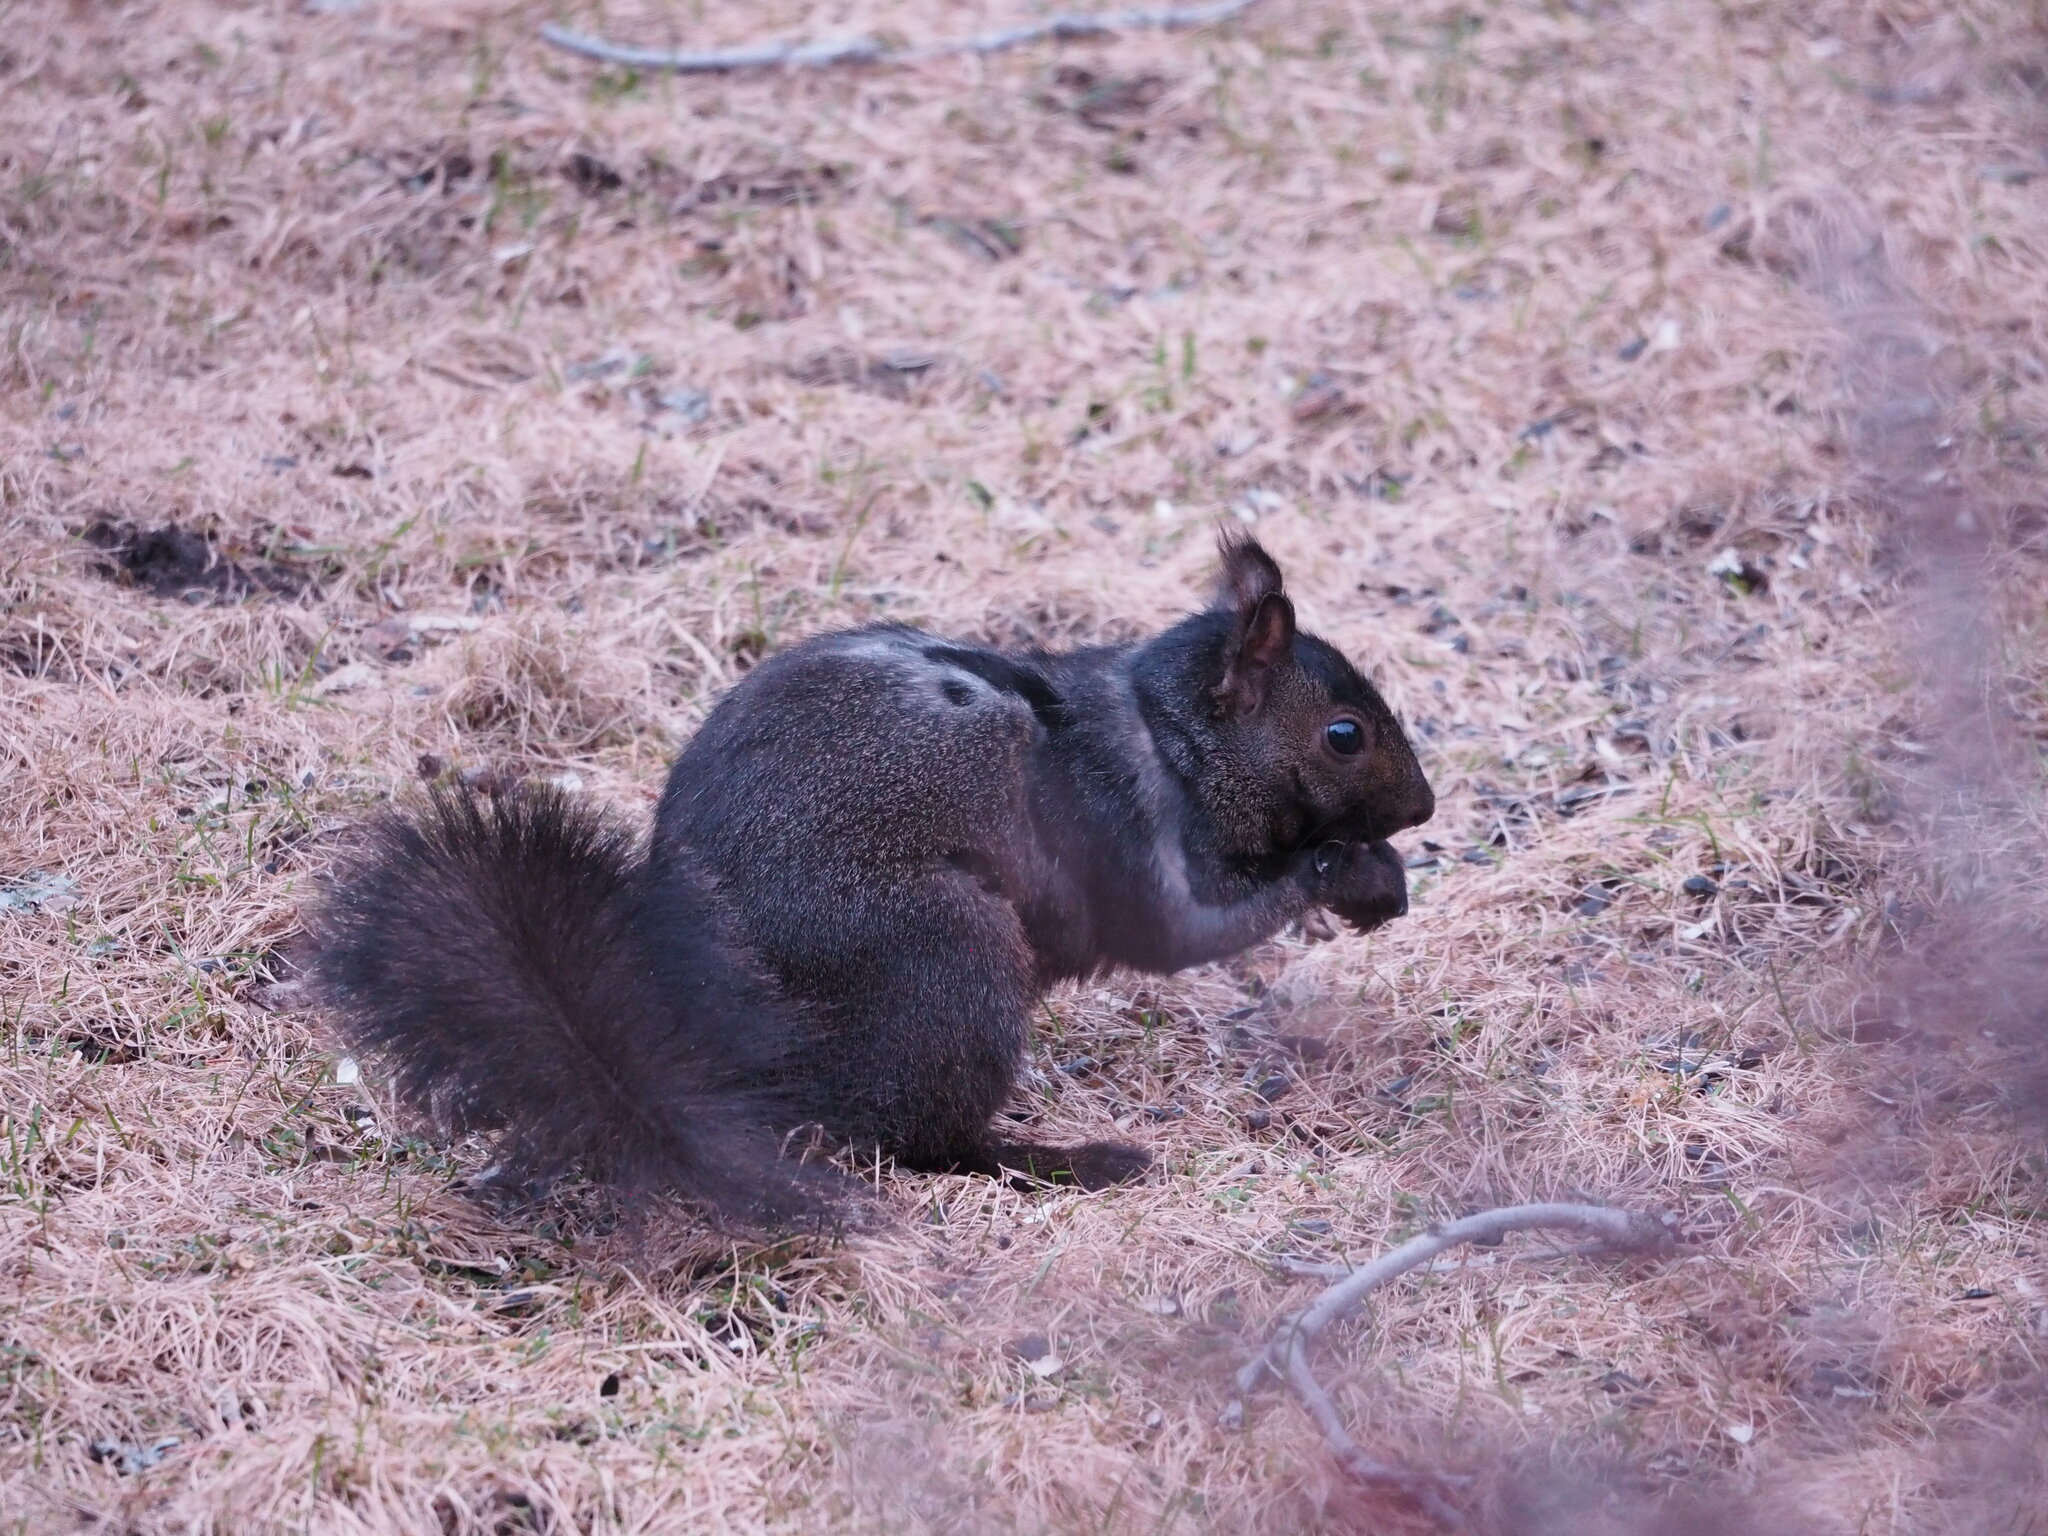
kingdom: Animalia
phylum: Chordata
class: Mammalia
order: Rodentia
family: Sciuridae
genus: Sciurus
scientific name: Sciurus carolinensis
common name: Eastern gray squirrel
